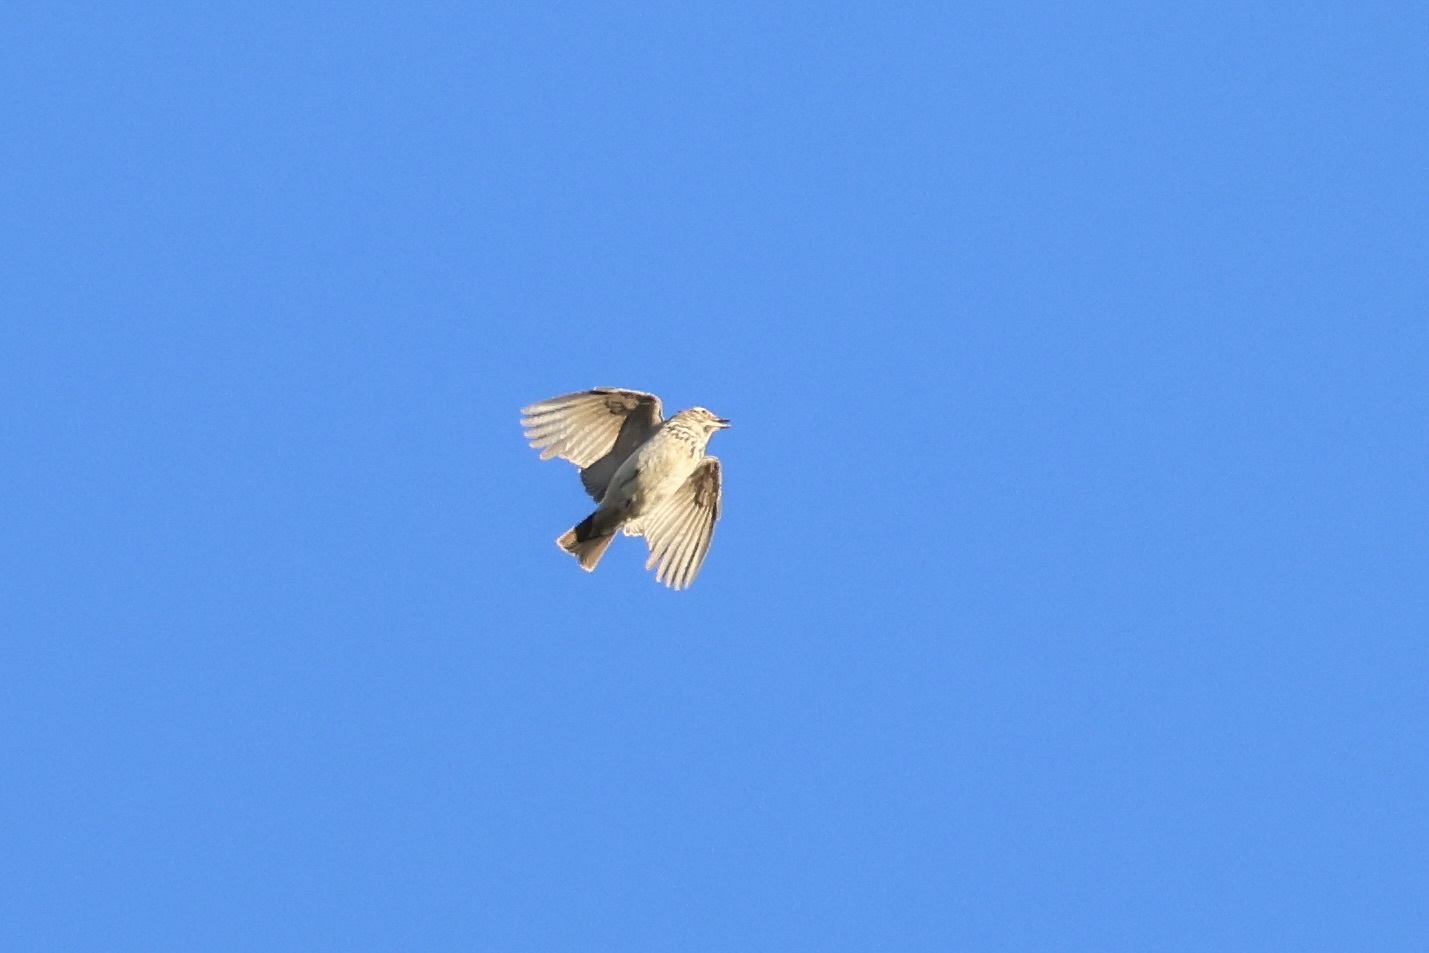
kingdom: Animalia
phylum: Chordata
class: Aves
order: Passeriformes
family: Alaudidae
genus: Galerida
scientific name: Galerida theklae
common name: Thekla lark
